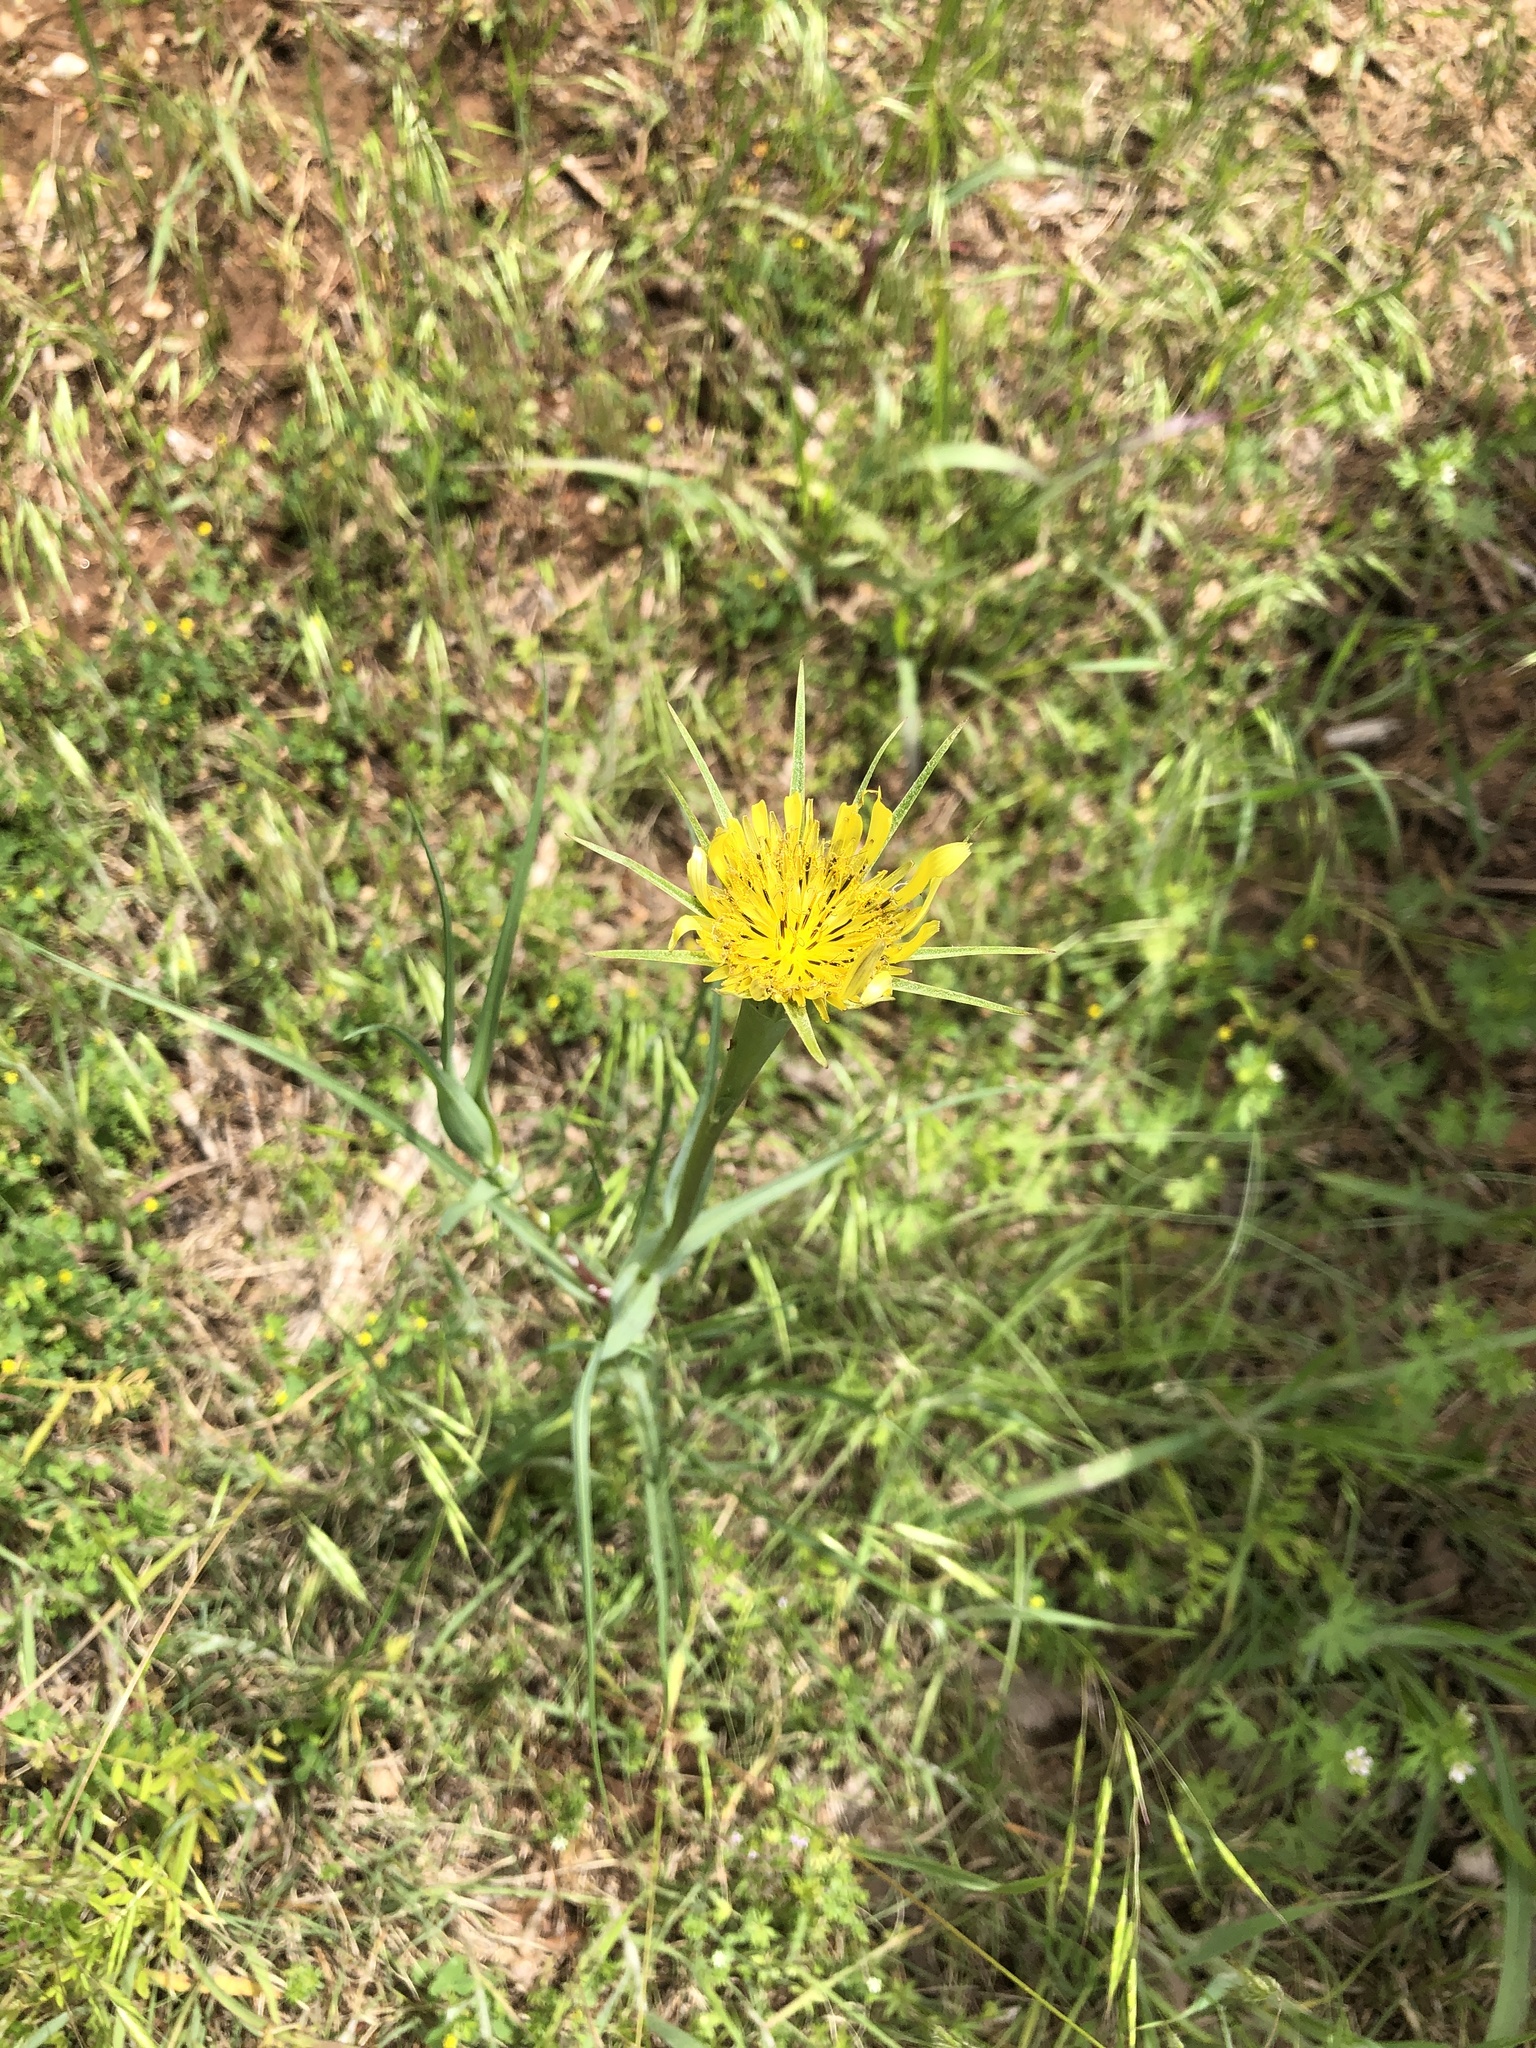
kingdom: Plantae
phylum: Tracheophyta
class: Magnoliopsida
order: Asterales
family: Asteraceae
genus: Tragopogon
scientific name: Tragopogon dubius
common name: Yellow salsify
